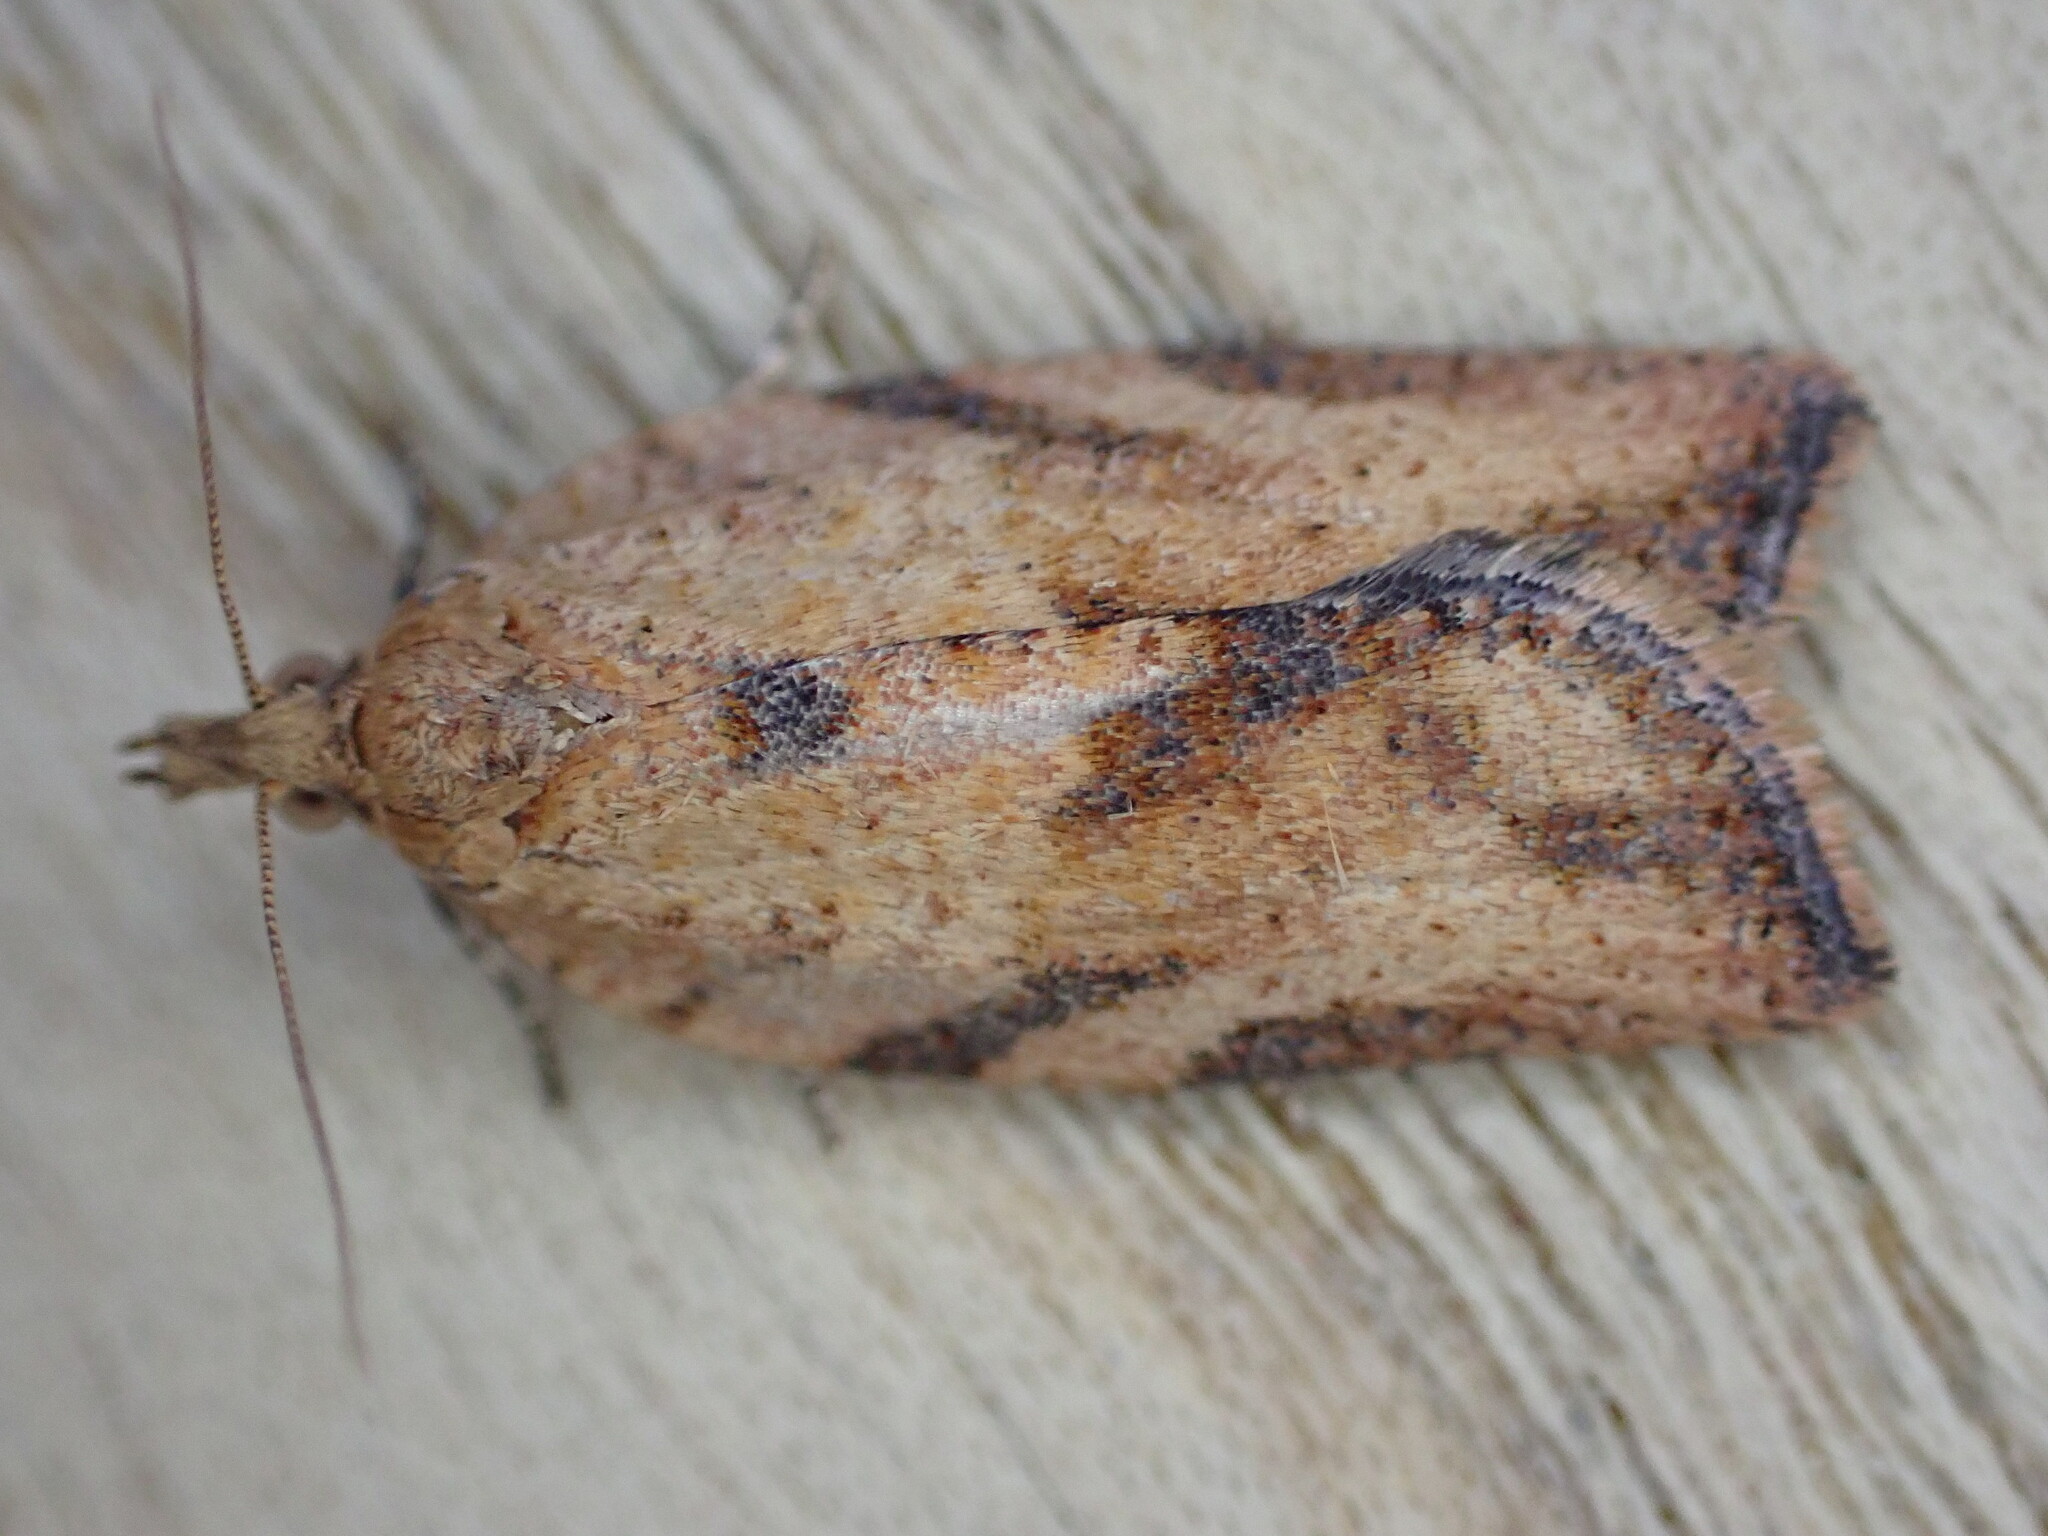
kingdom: Animalia
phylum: Arthropoda
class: Insecta
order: Lepidoptera
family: Tortricidae
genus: Epiphyas
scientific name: Epiphyas postvittana
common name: Light brown apple moth
